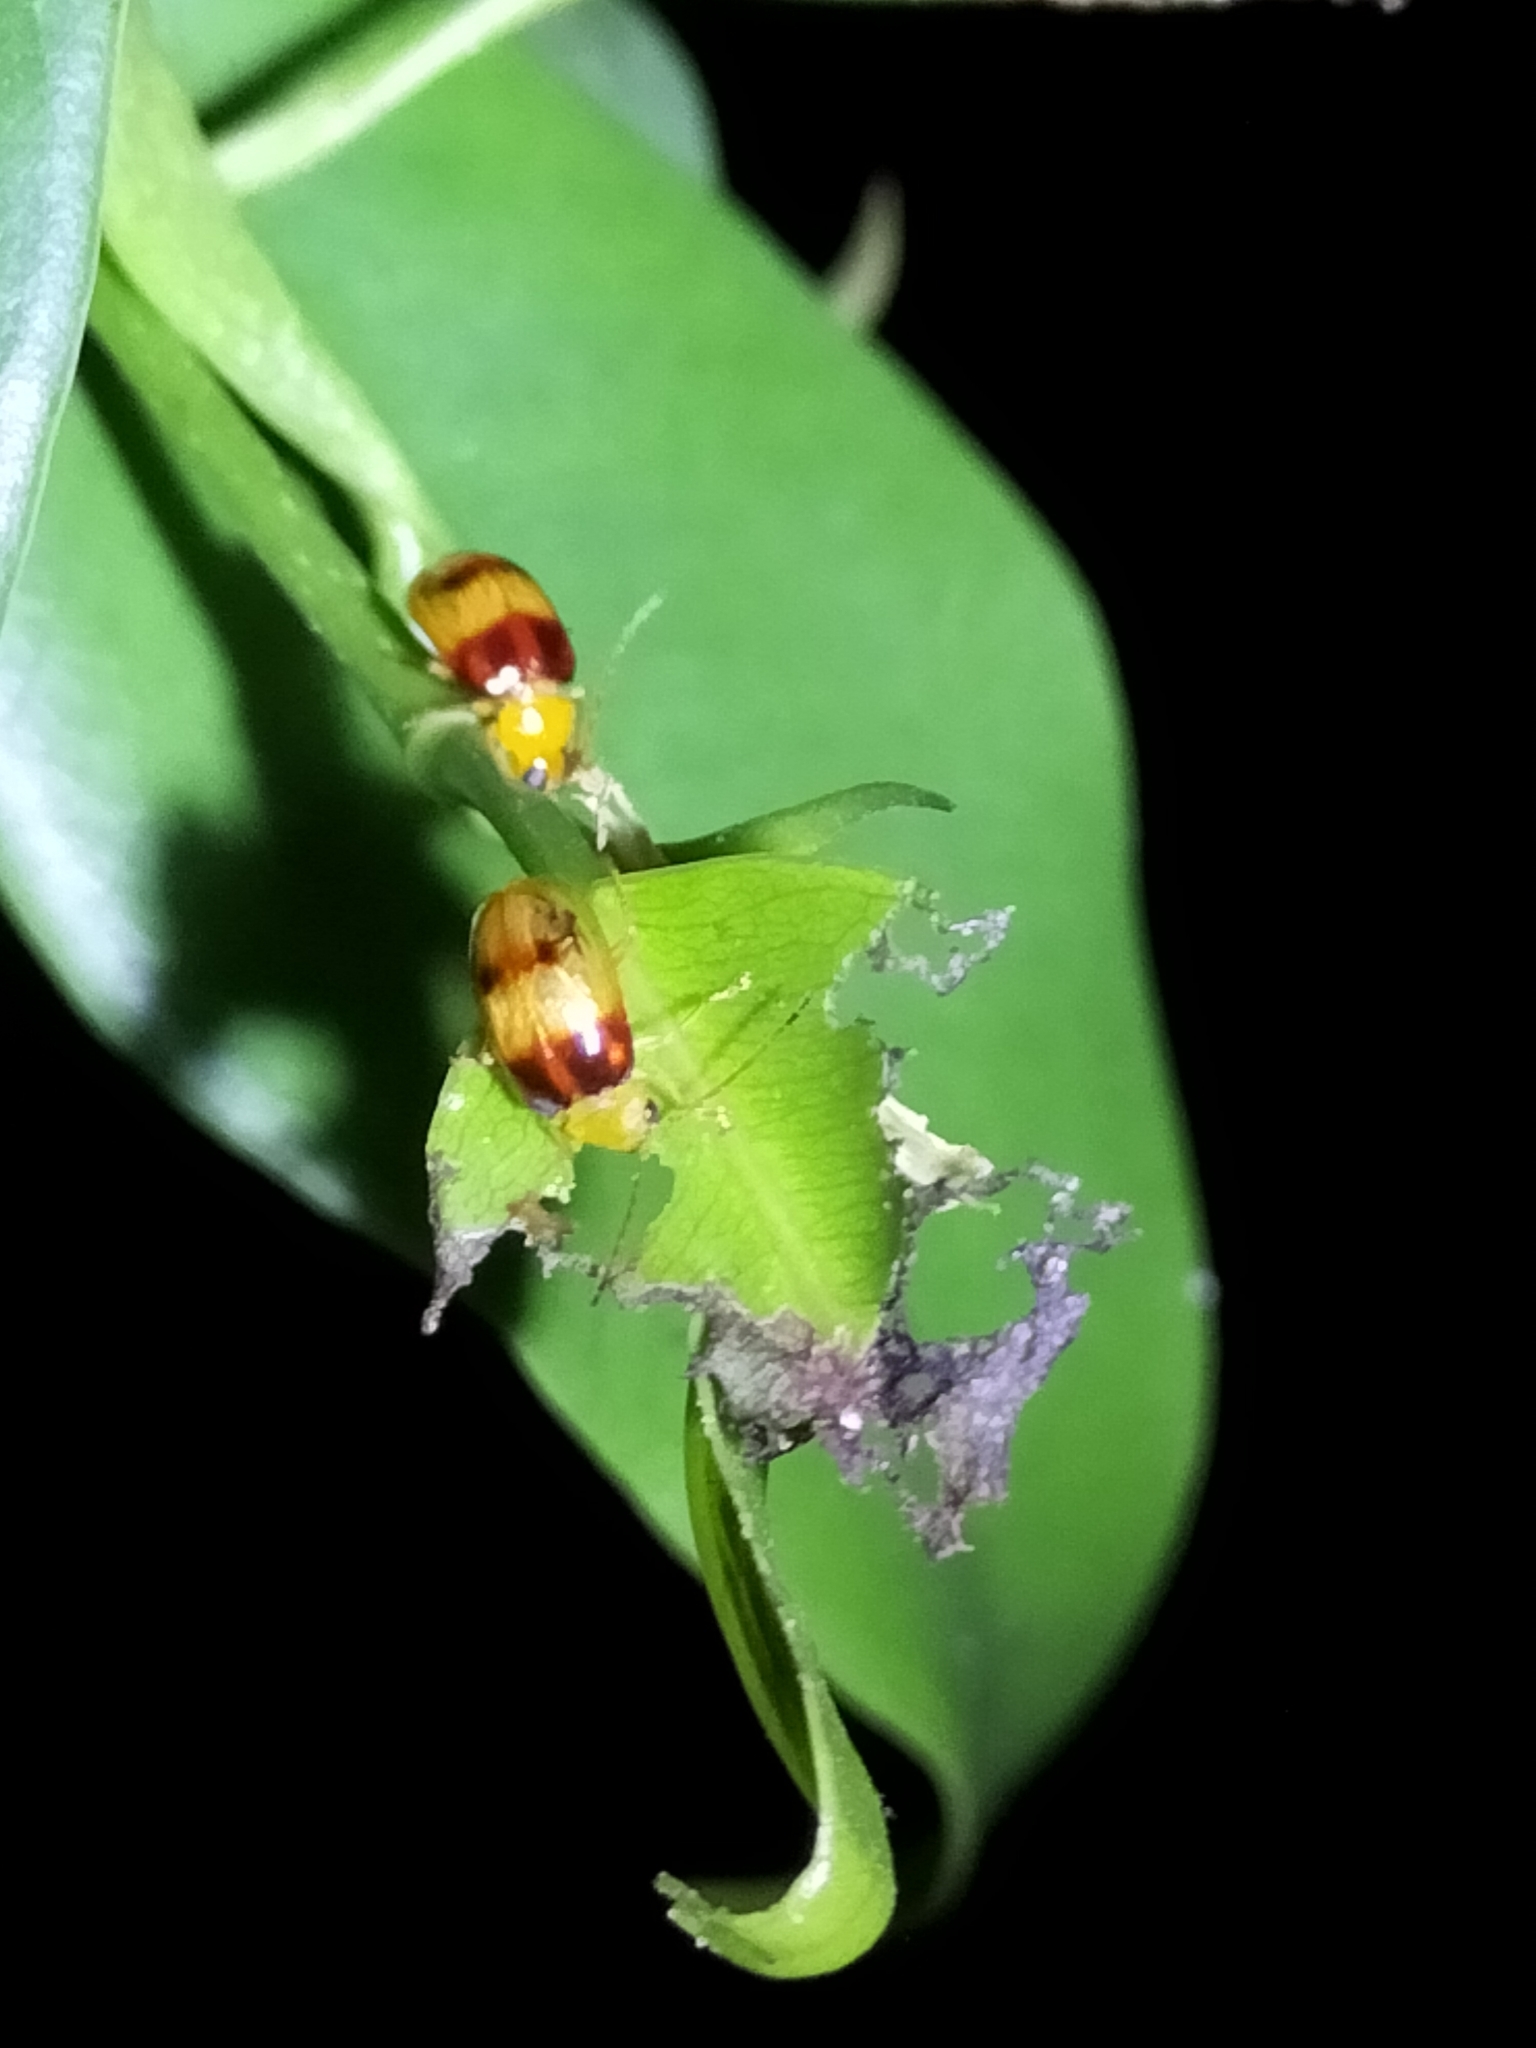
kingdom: Animalia
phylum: Arthropoda
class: Insecta
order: Coleoptera
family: Chrysomelidae
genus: Monolepta
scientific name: Monolepta
